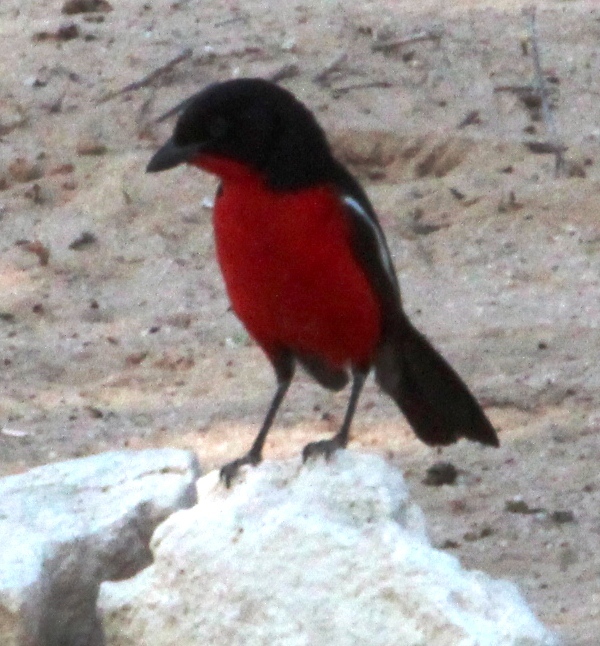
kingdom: Animalia
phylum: Chordata
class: Aves
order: Passeriformes
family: Malaconotidae
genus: Laniarius
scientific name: Laniarius atrococcineus
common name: Crimson-breasted shrike
